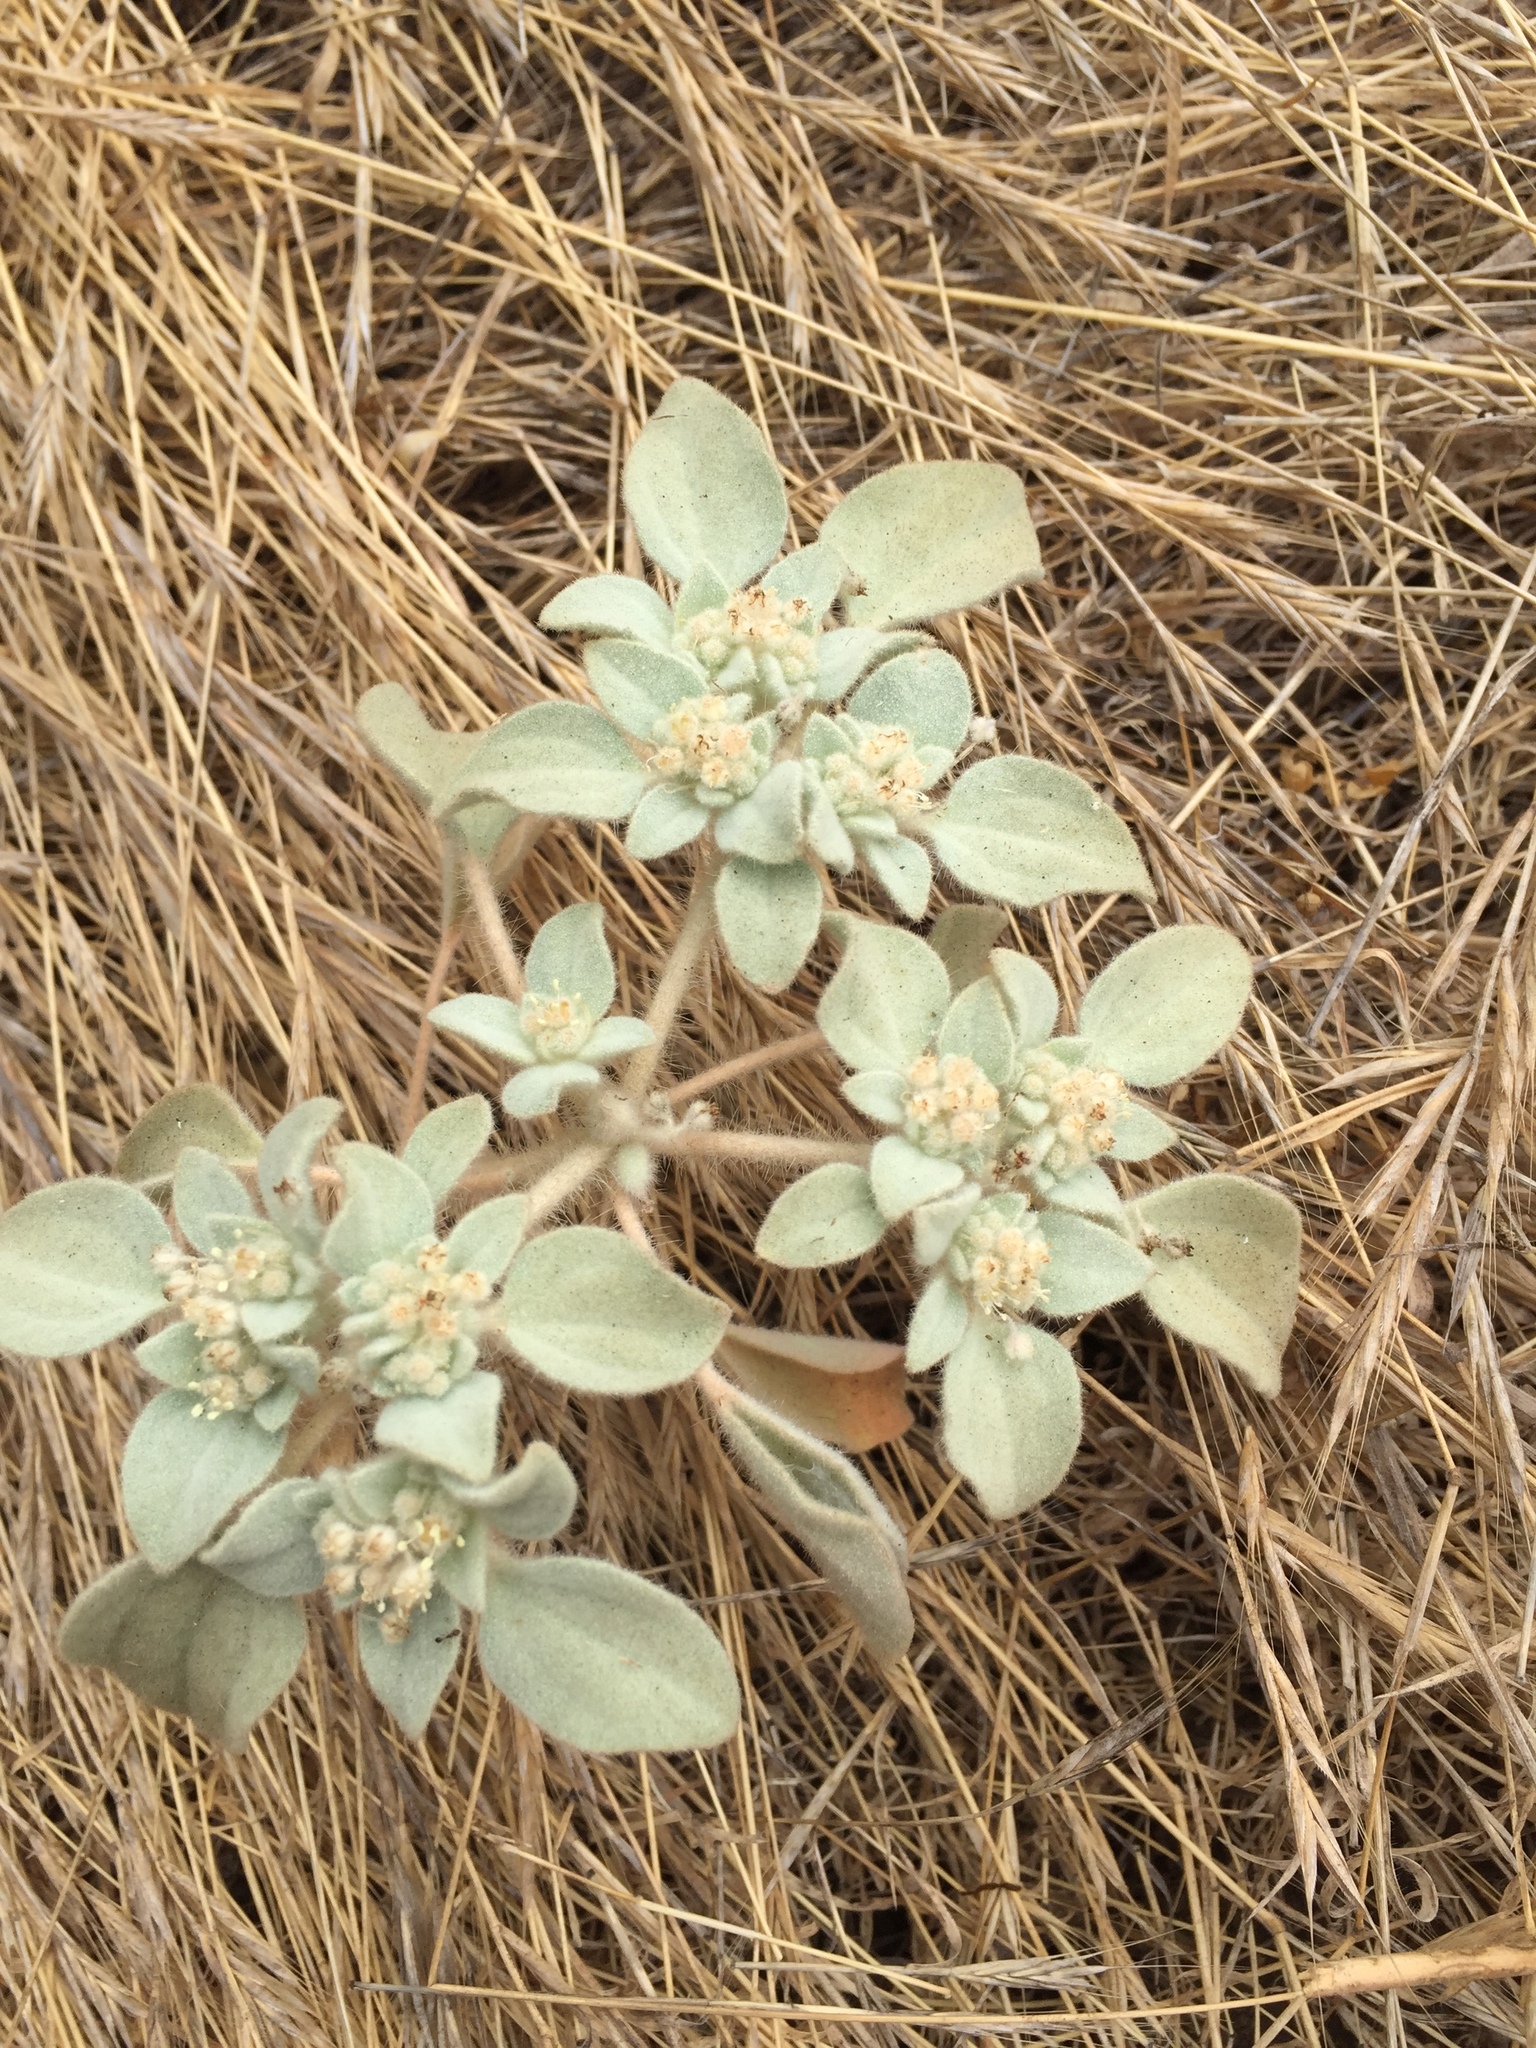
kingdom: Plantae
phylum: Tracheophyta
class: Magnoliopsida
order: Malpighiales
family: Euphorbiaceae
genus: Croton
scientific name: Croton setiger
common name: Dove weed
